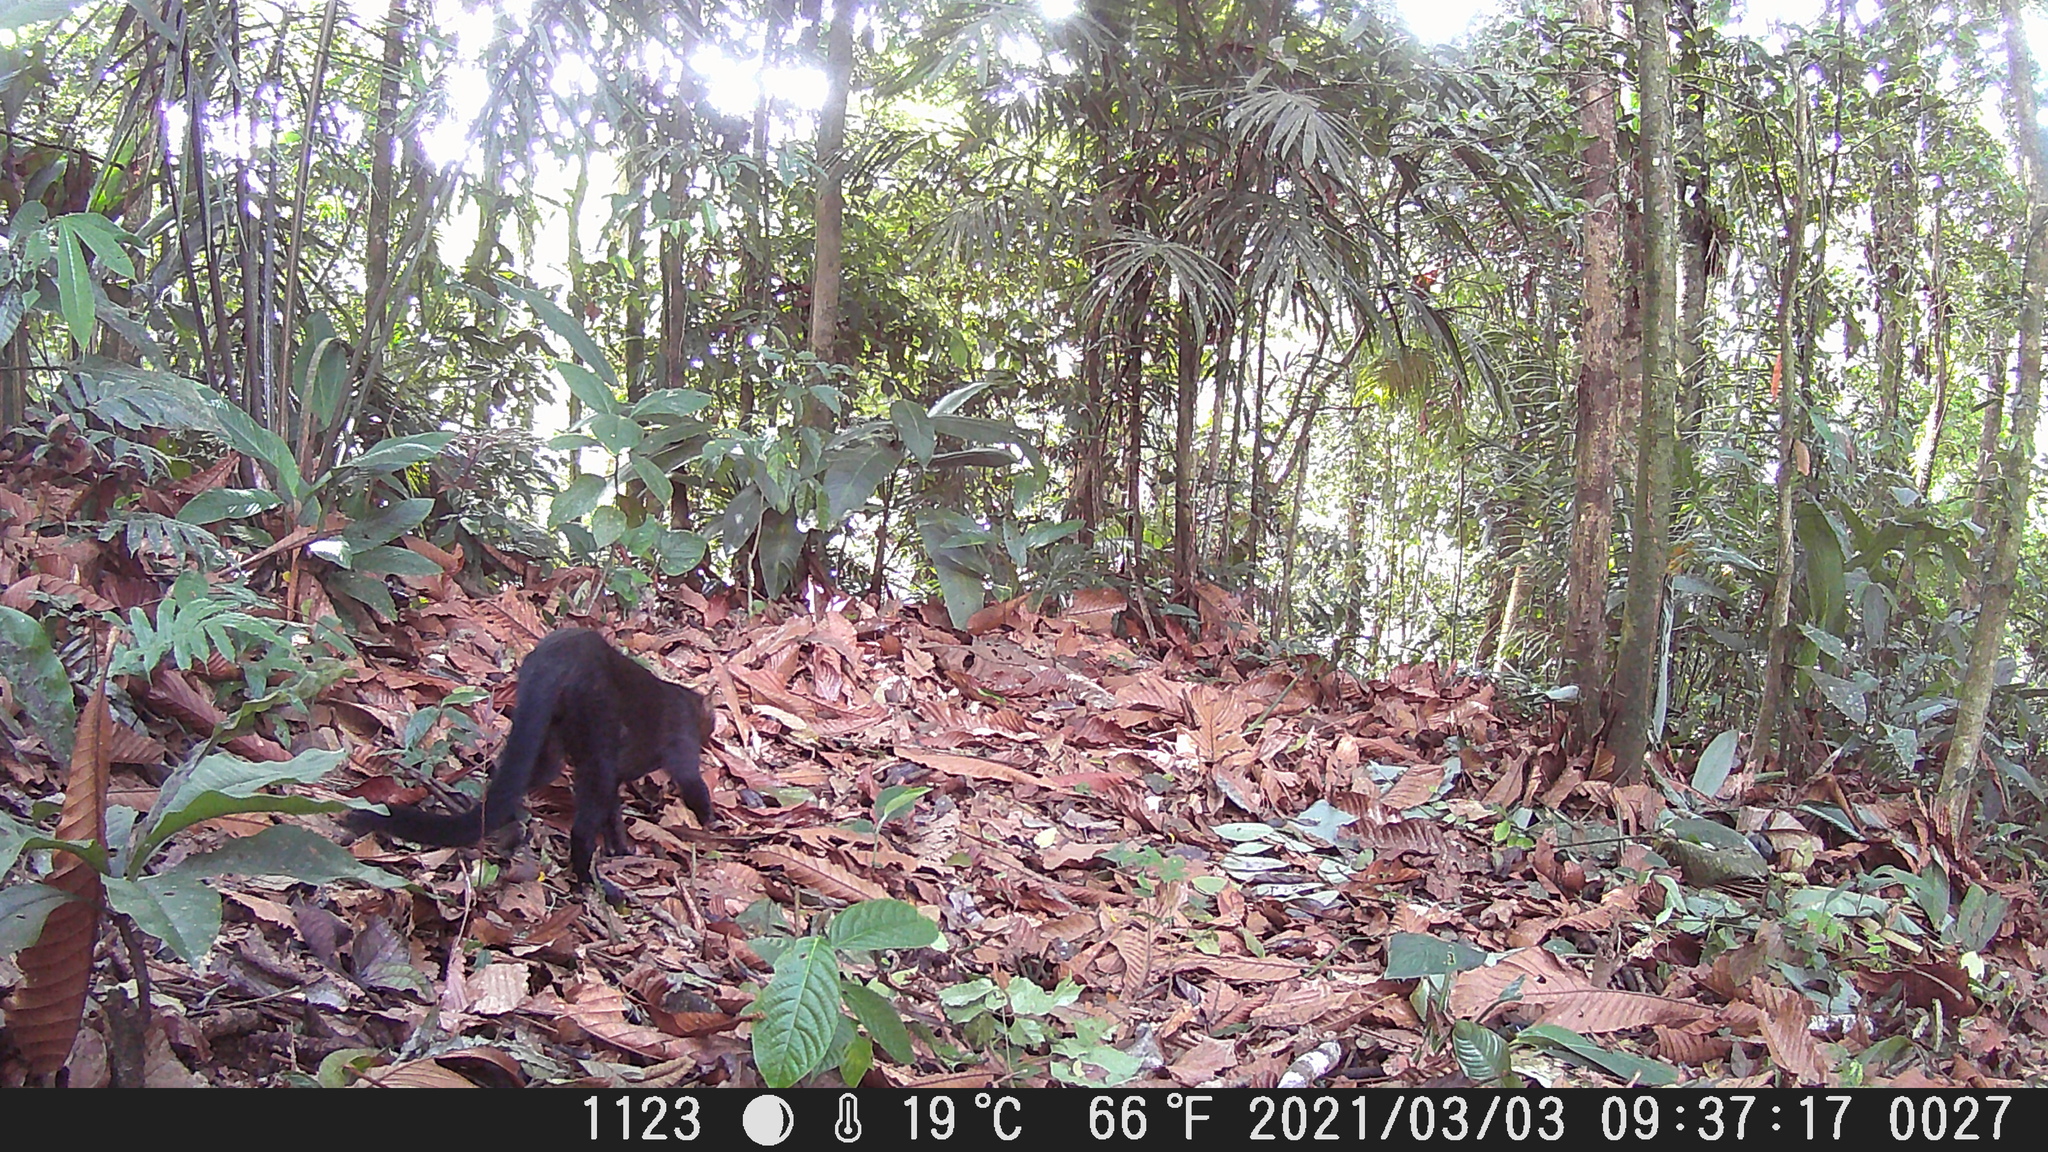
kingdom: Animalia
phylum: Chordata
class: Mammalia
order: Carnivora
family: Felidae
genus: Puma
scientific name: Puma yagouaroundi
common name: Jaguarundi
